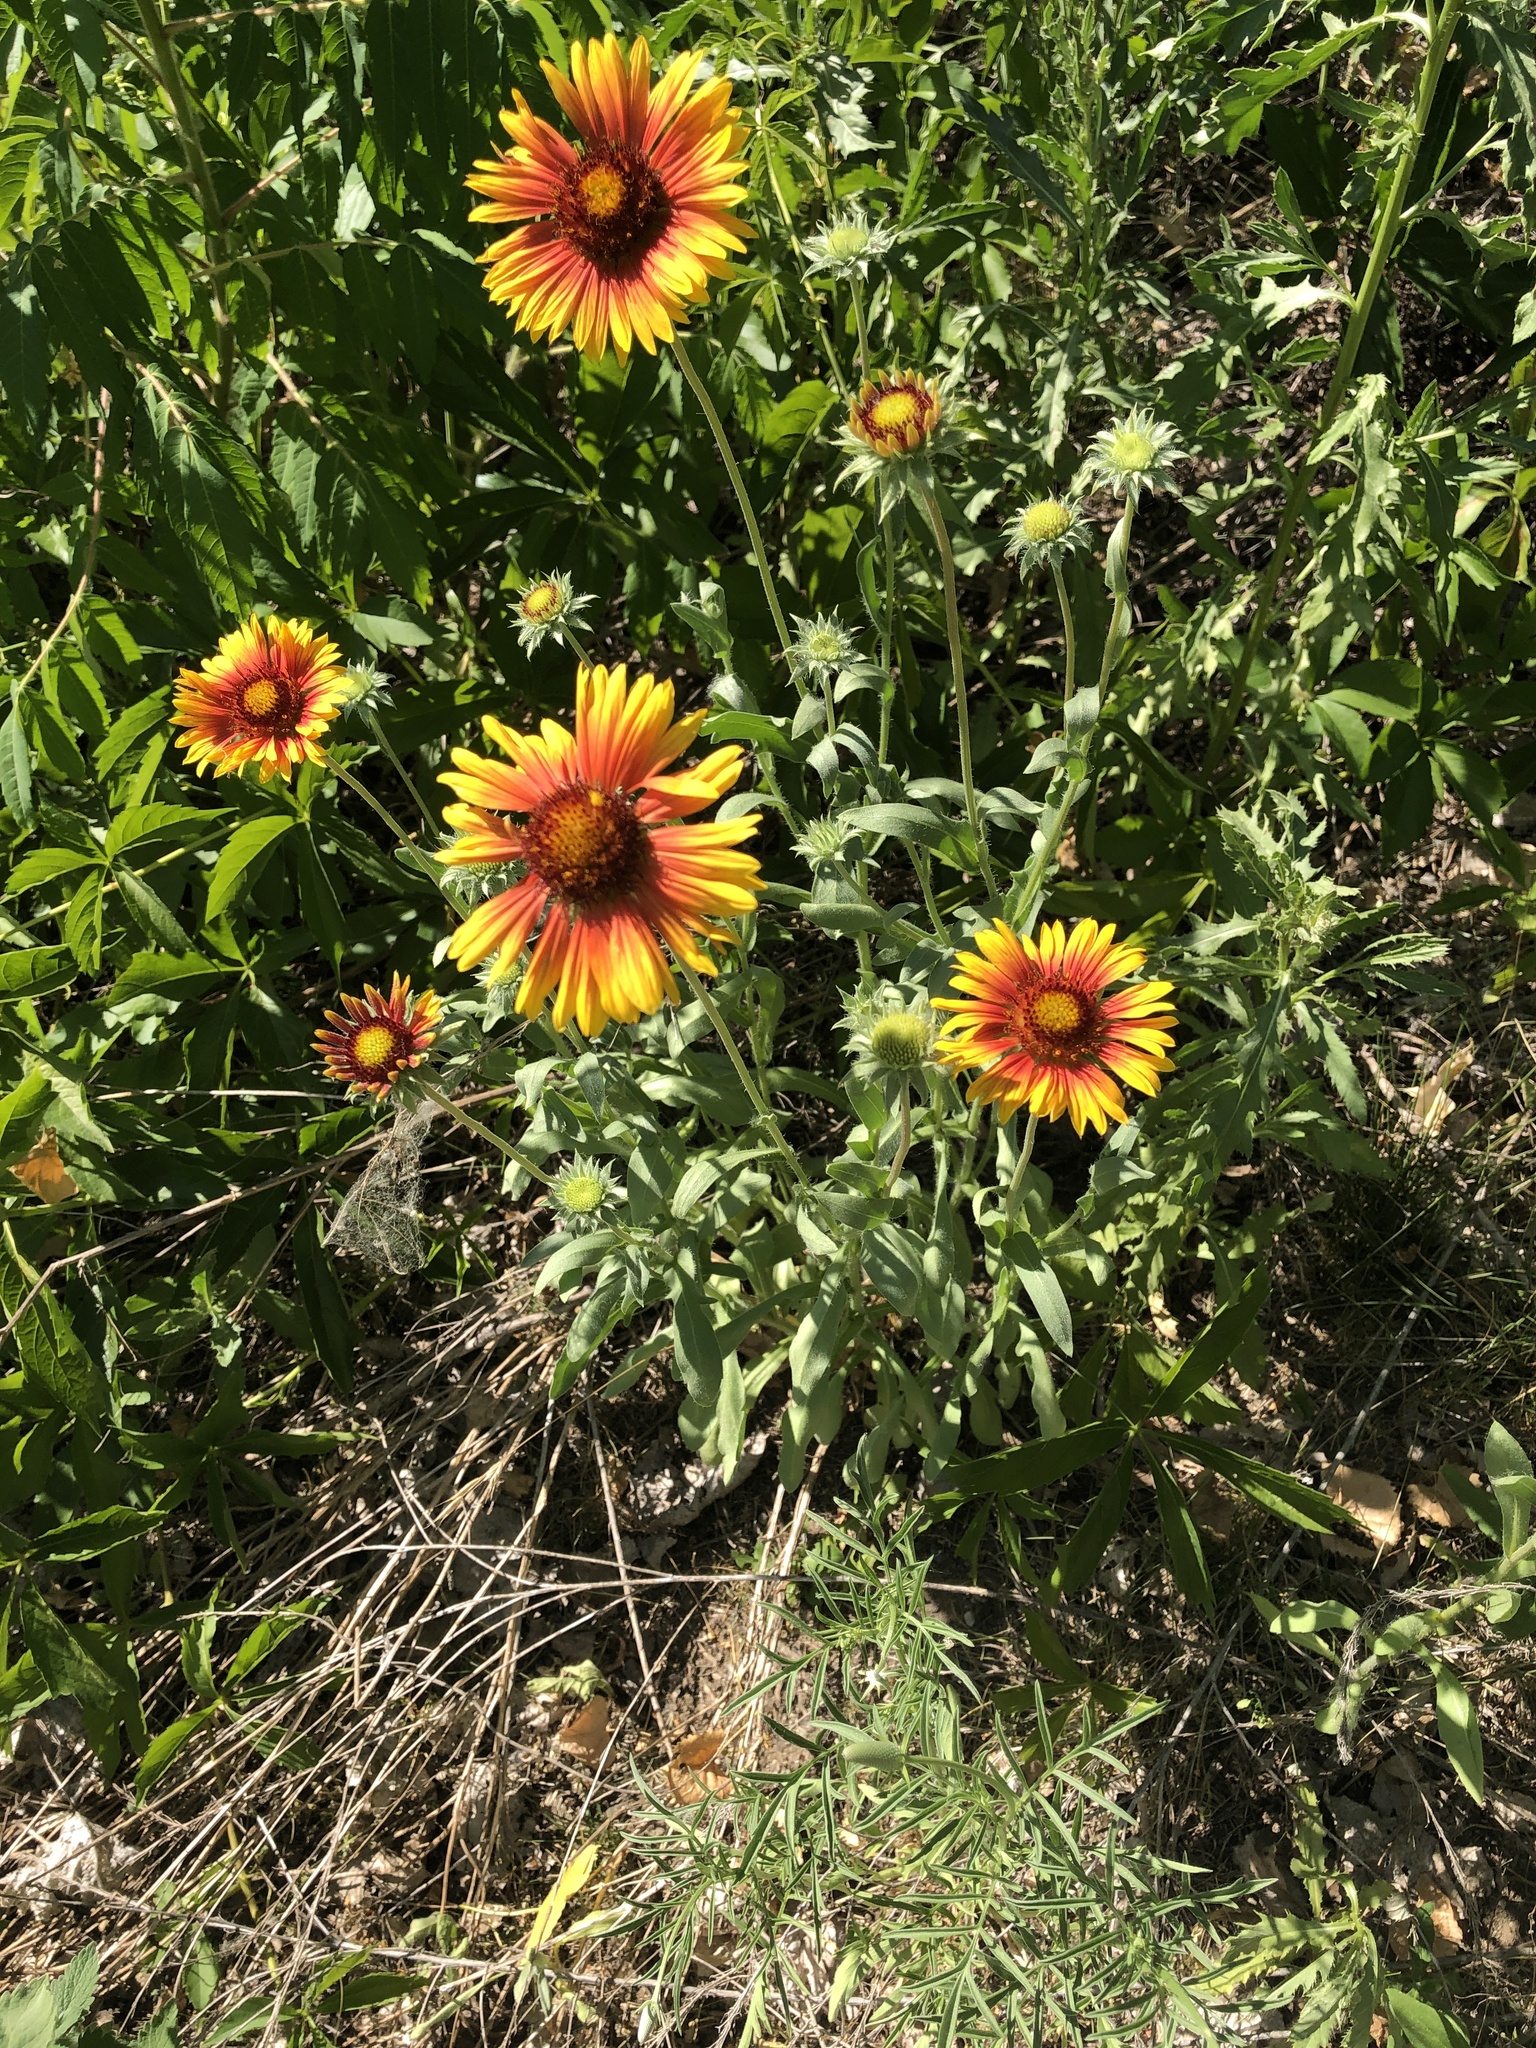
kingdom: Plantae
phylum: Tracheophyta
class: Magnoliopsida
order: Asterales
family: Asteraceae
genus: Gaillardia
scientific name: Gaillardia pulchella
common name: Firewheel
